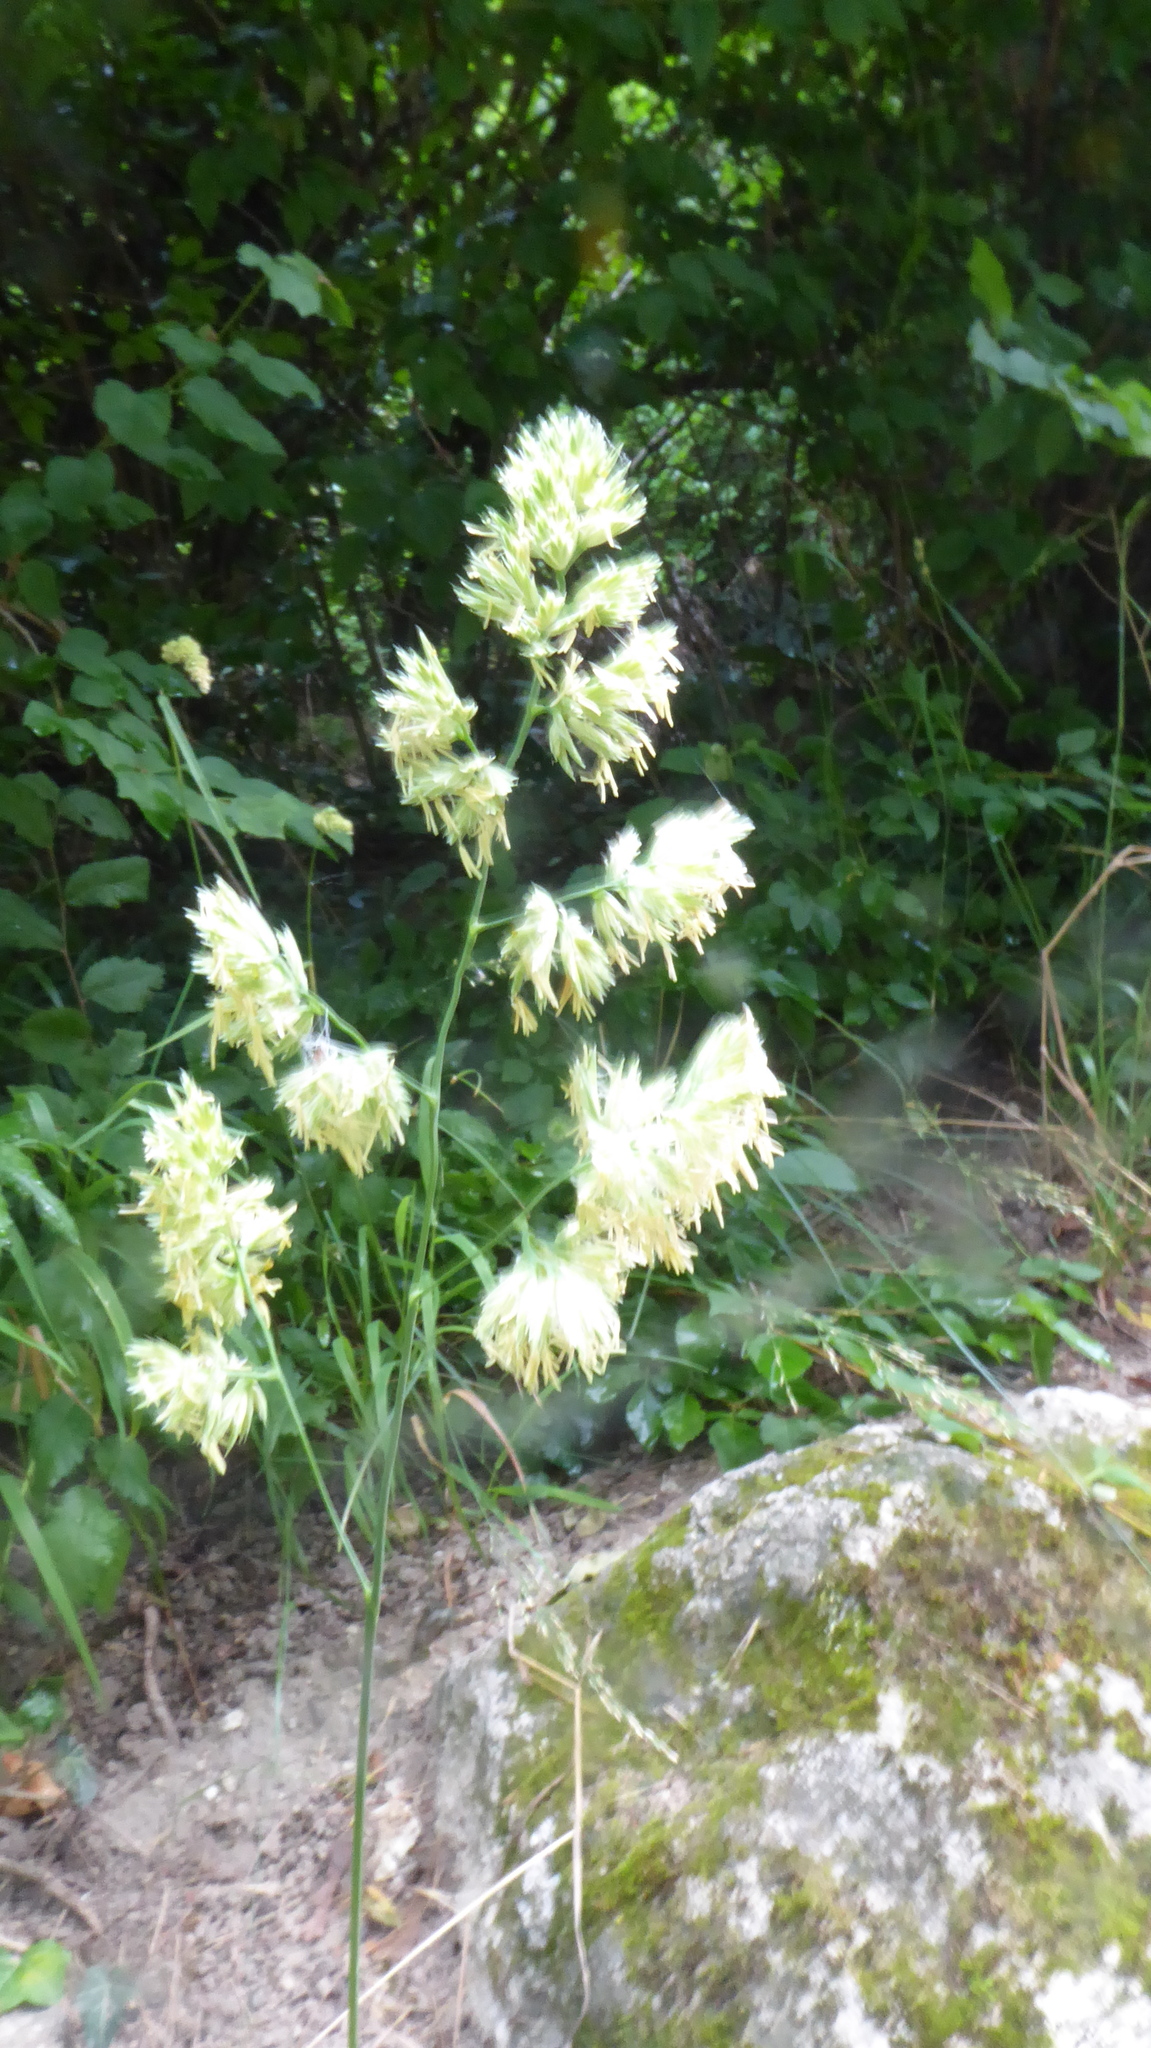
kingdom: Plantae
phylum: Tracheophyta
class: Liliopsida
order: Poales
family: Poaceae
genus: Dactylis
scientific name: Dactylis glomerata
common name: Orchardgrass
